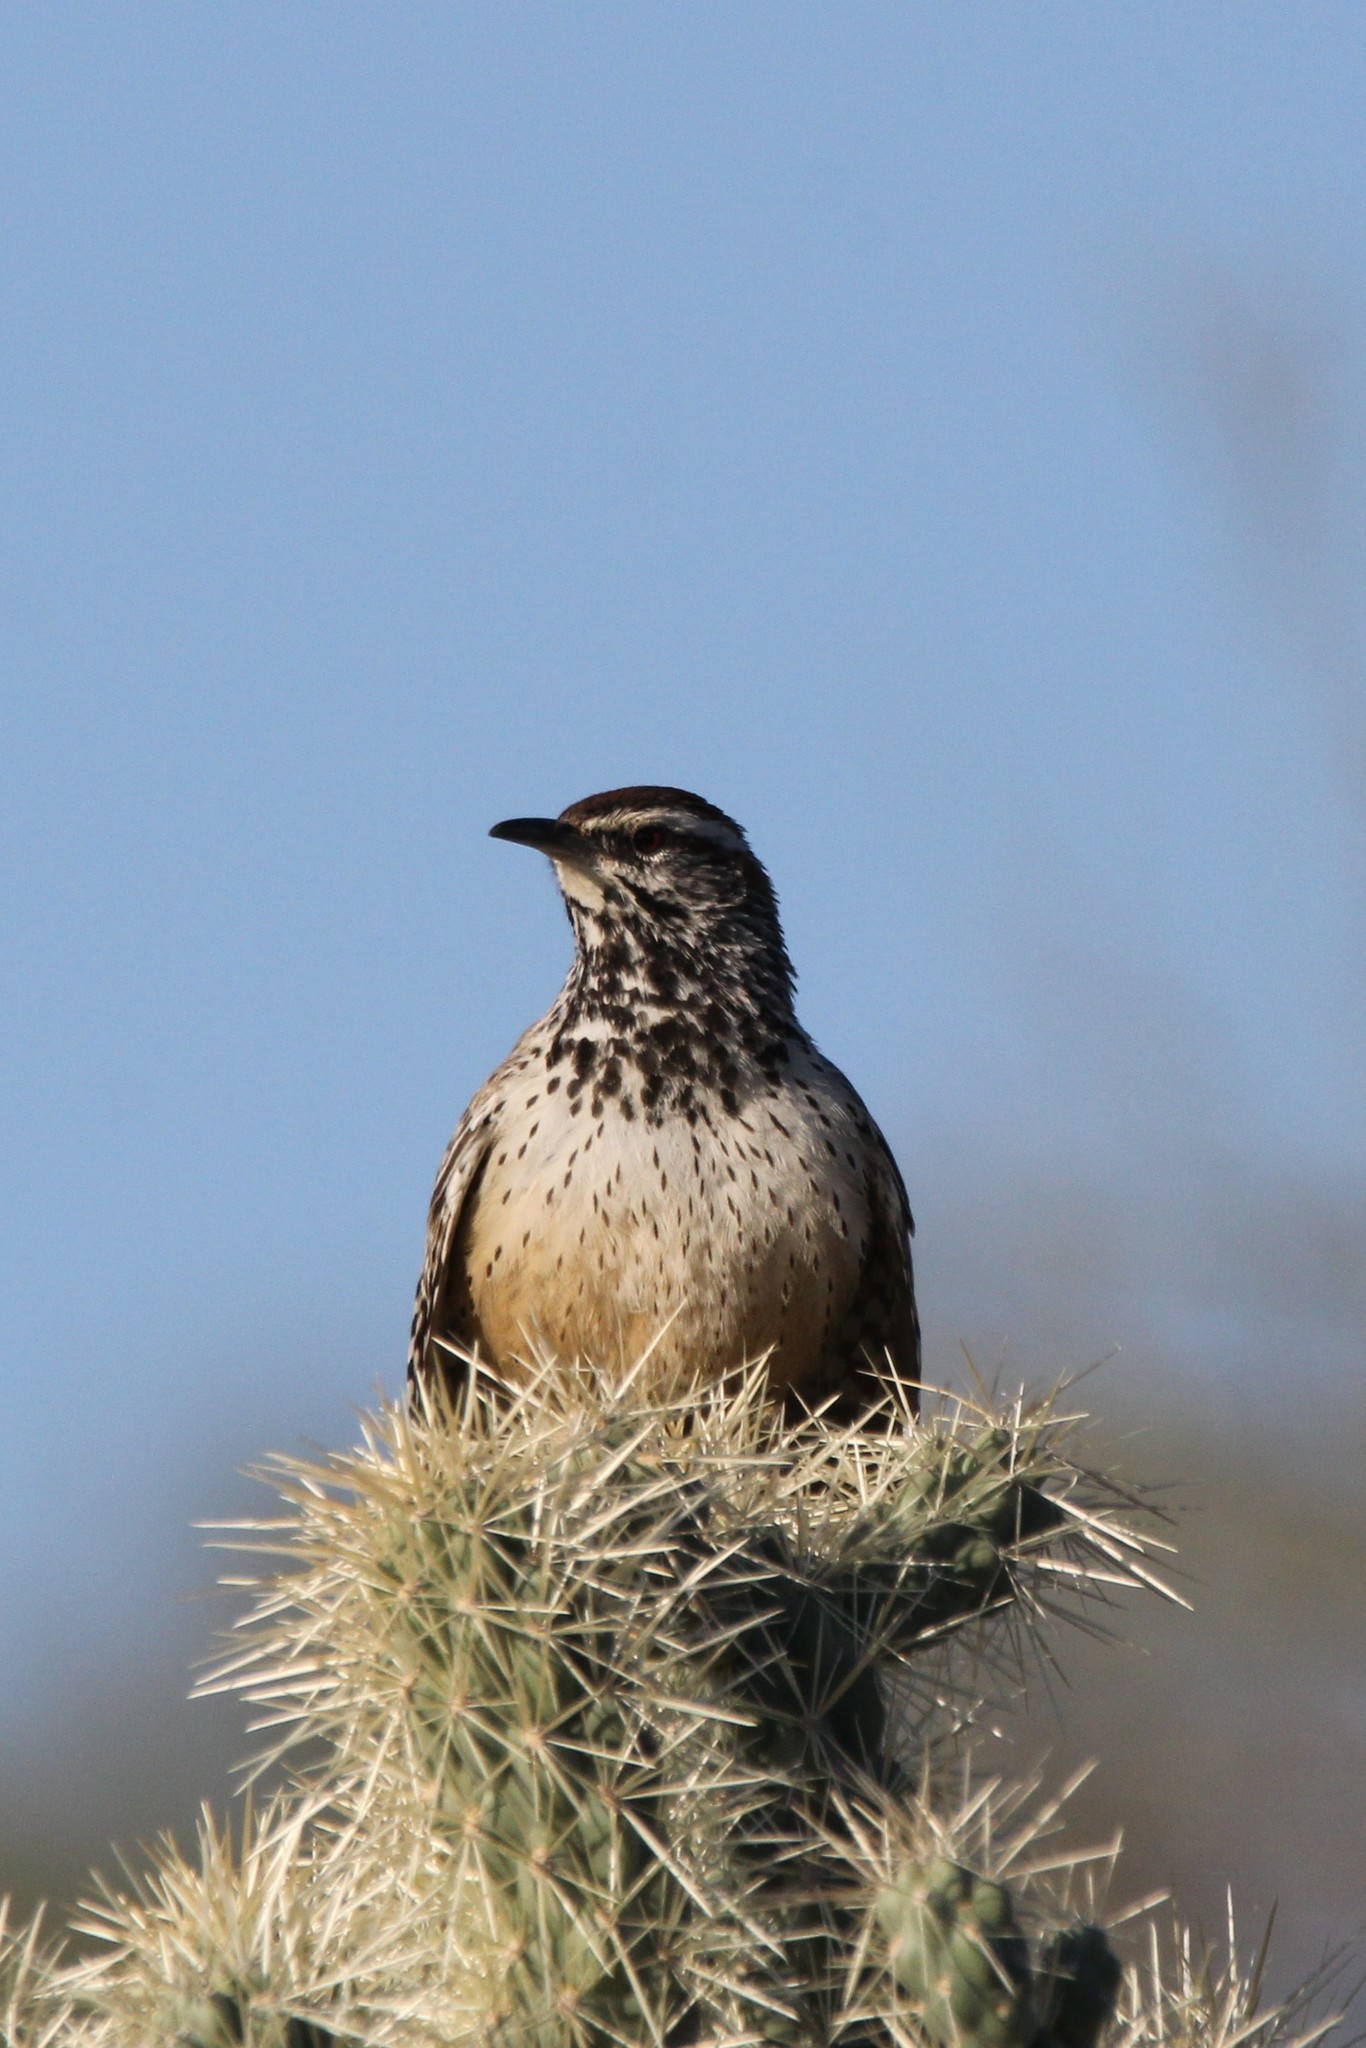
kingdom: Animalia
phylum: Chordata
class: Aves
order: Passeriformes
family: Troglodytidae
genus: Campylorhynchus
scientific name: Campylorhynchus brunneicapillus
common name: Cactus wren
